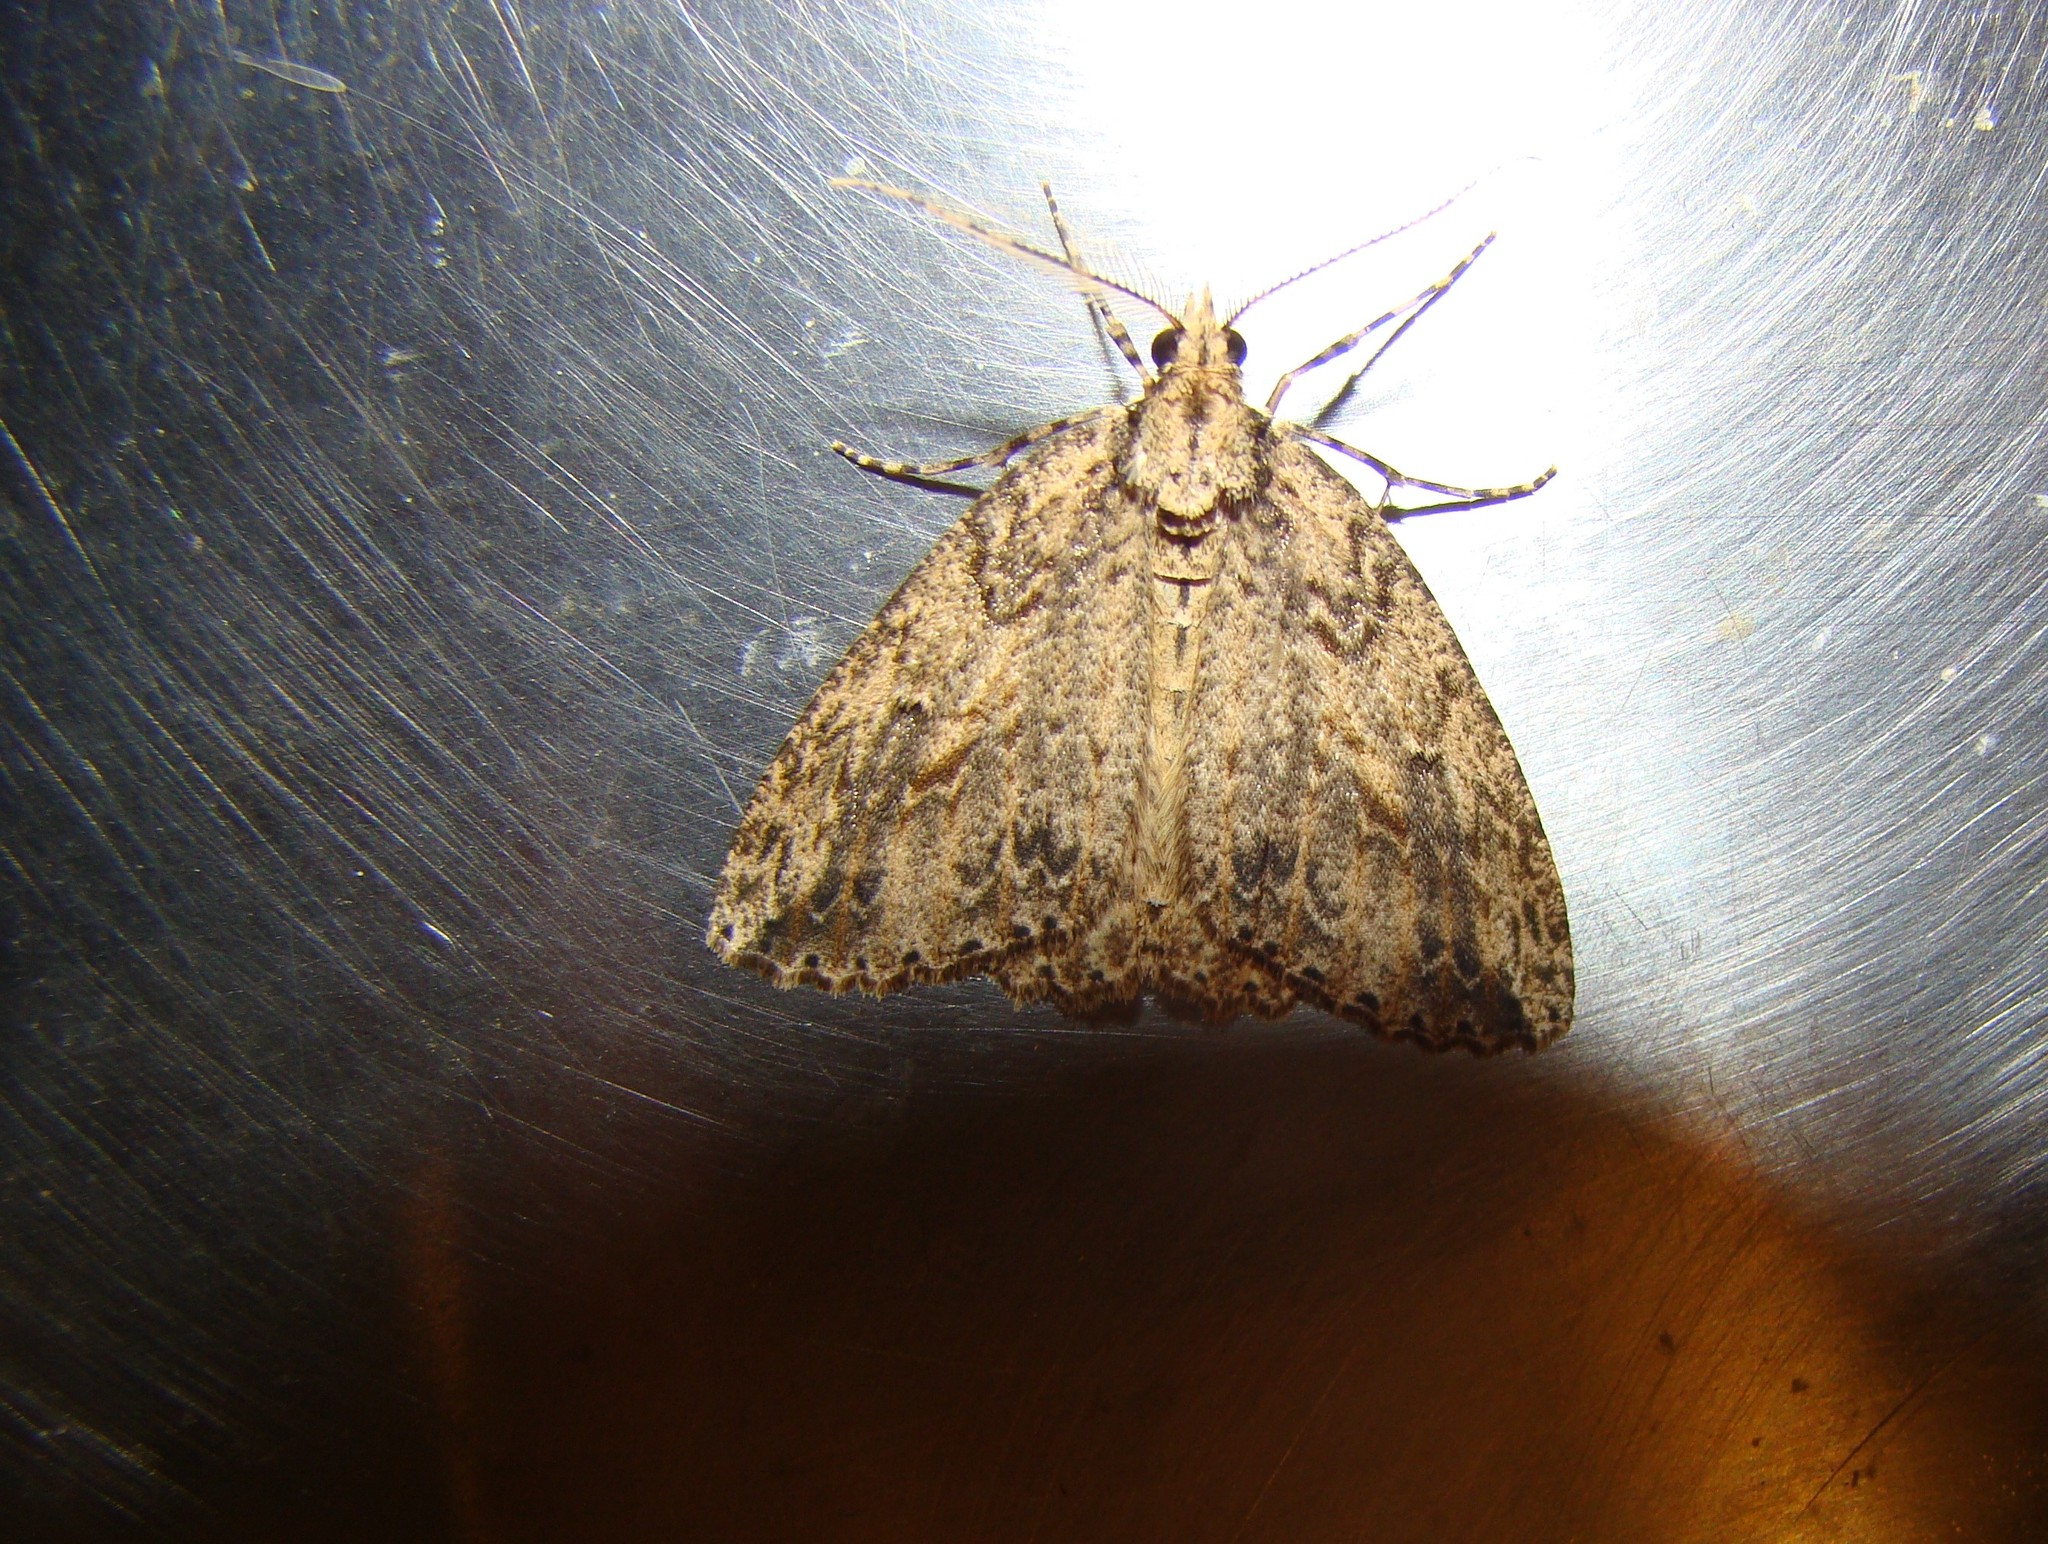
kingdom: Animalia
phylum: Arthropoda
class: Insecta
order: Lepidoptera
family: Geometridae
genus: Pseudocoremia
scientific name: Pseudocoremia rudisata
